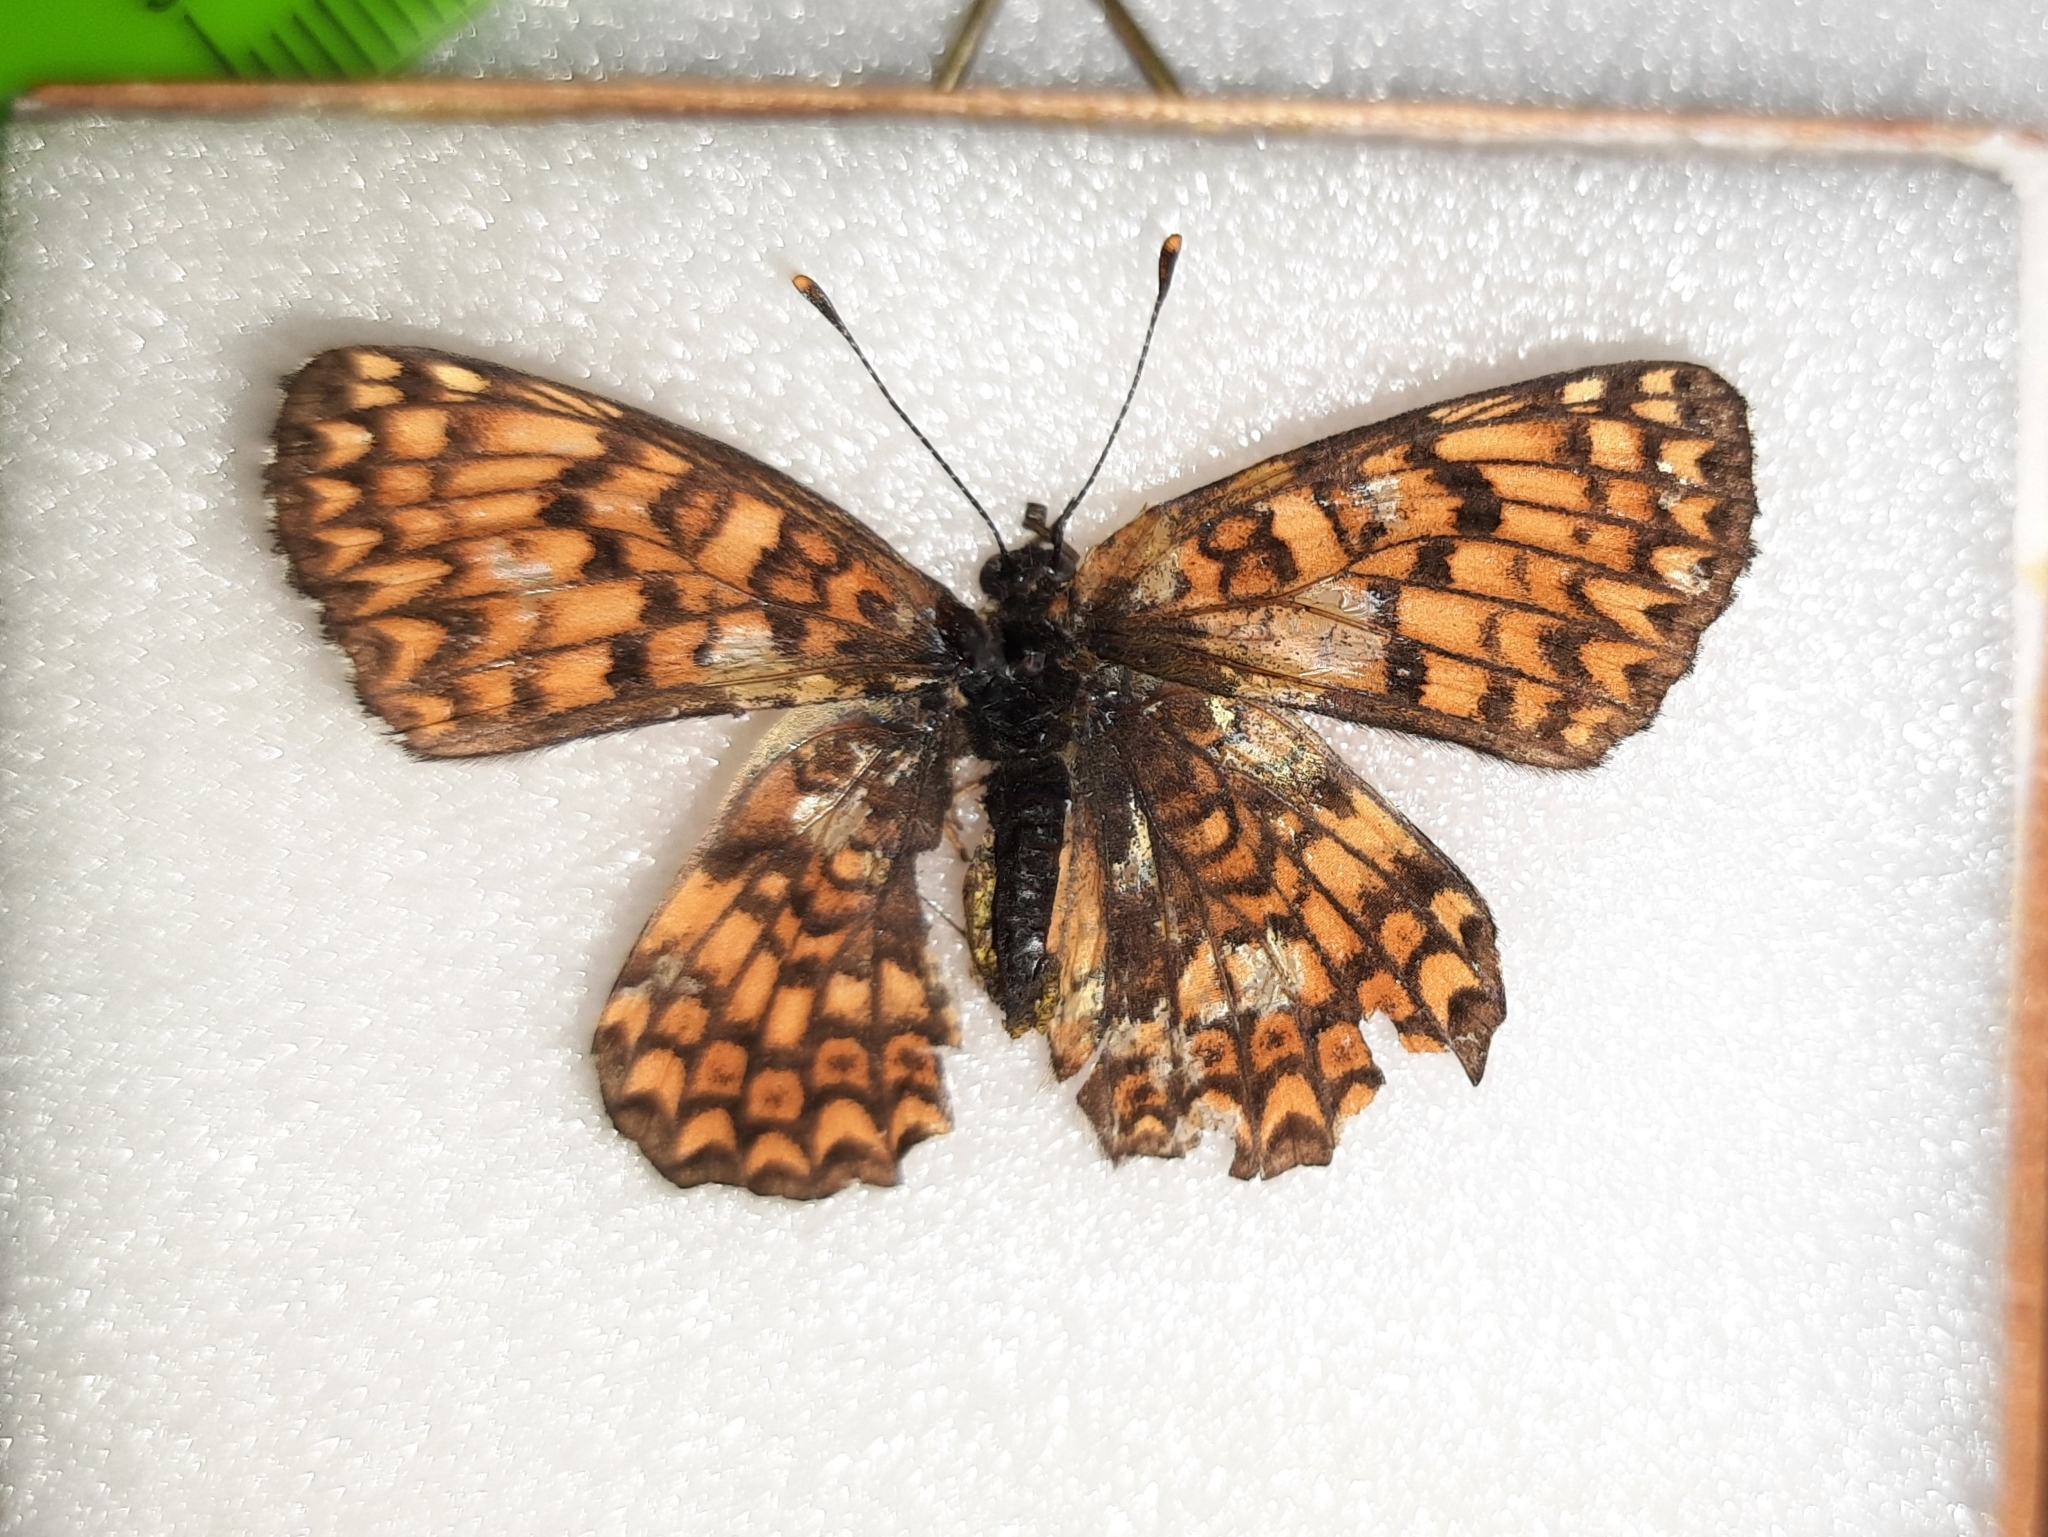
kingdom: Animalia
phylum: Arthropoda
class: Insecta
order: Lepidoptera
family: Nymphalidae
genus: Melitaea
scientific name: Melitaea phoebe
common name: Knapweed fritillary
